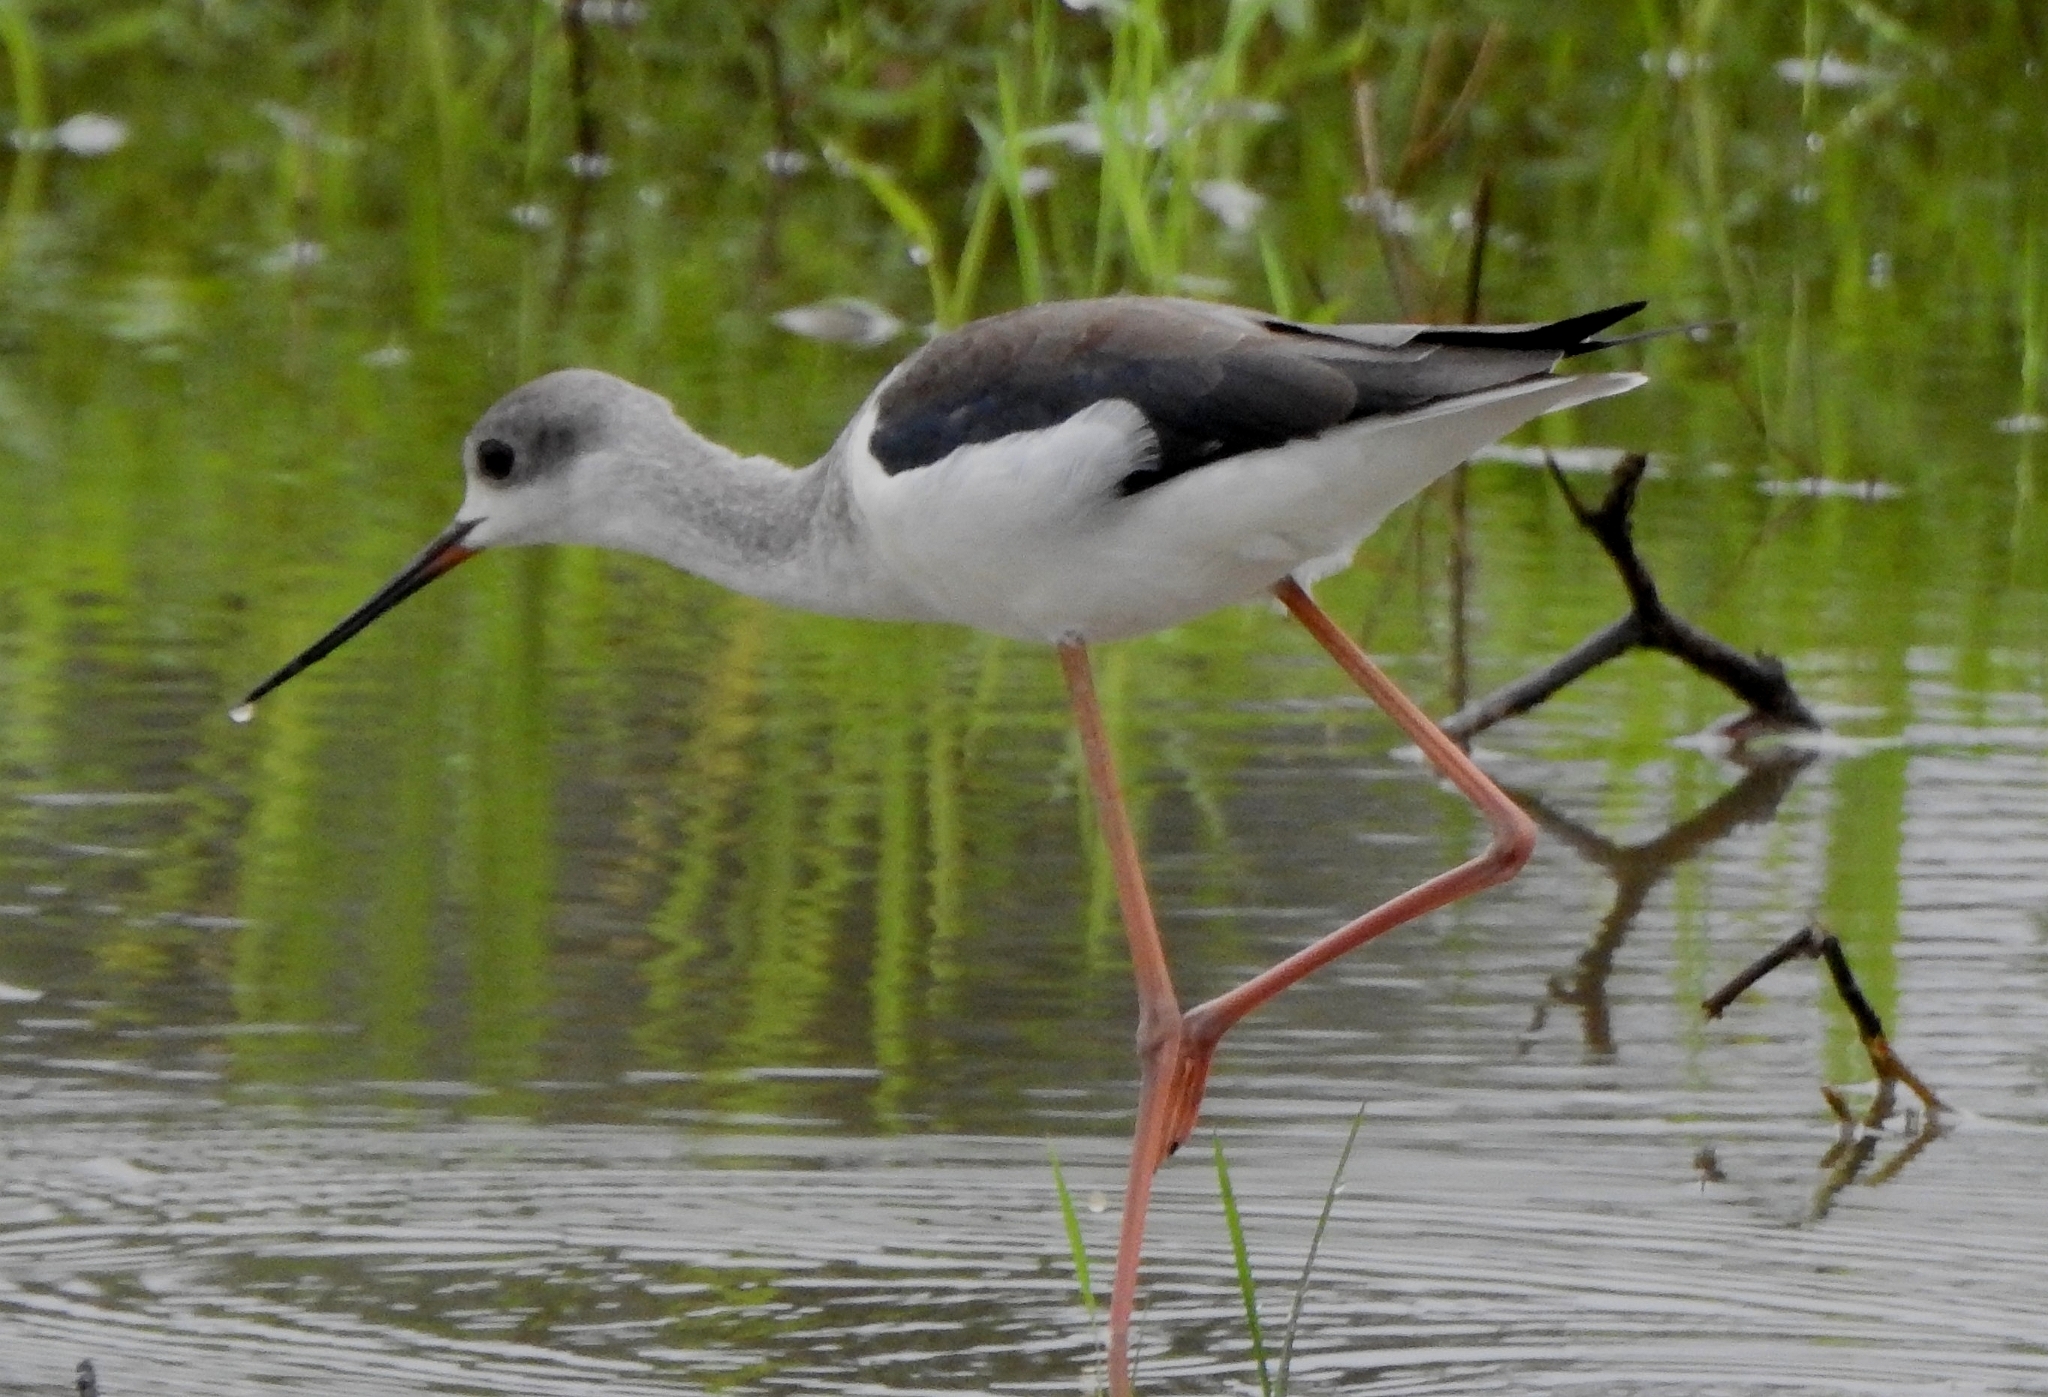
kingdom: Animalia
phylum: Chordata
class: Aves
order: Charadriiformes
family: Recurvirostridae
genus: Himantopus
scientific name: Himantopus himantopus
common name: Black-winged stilt
